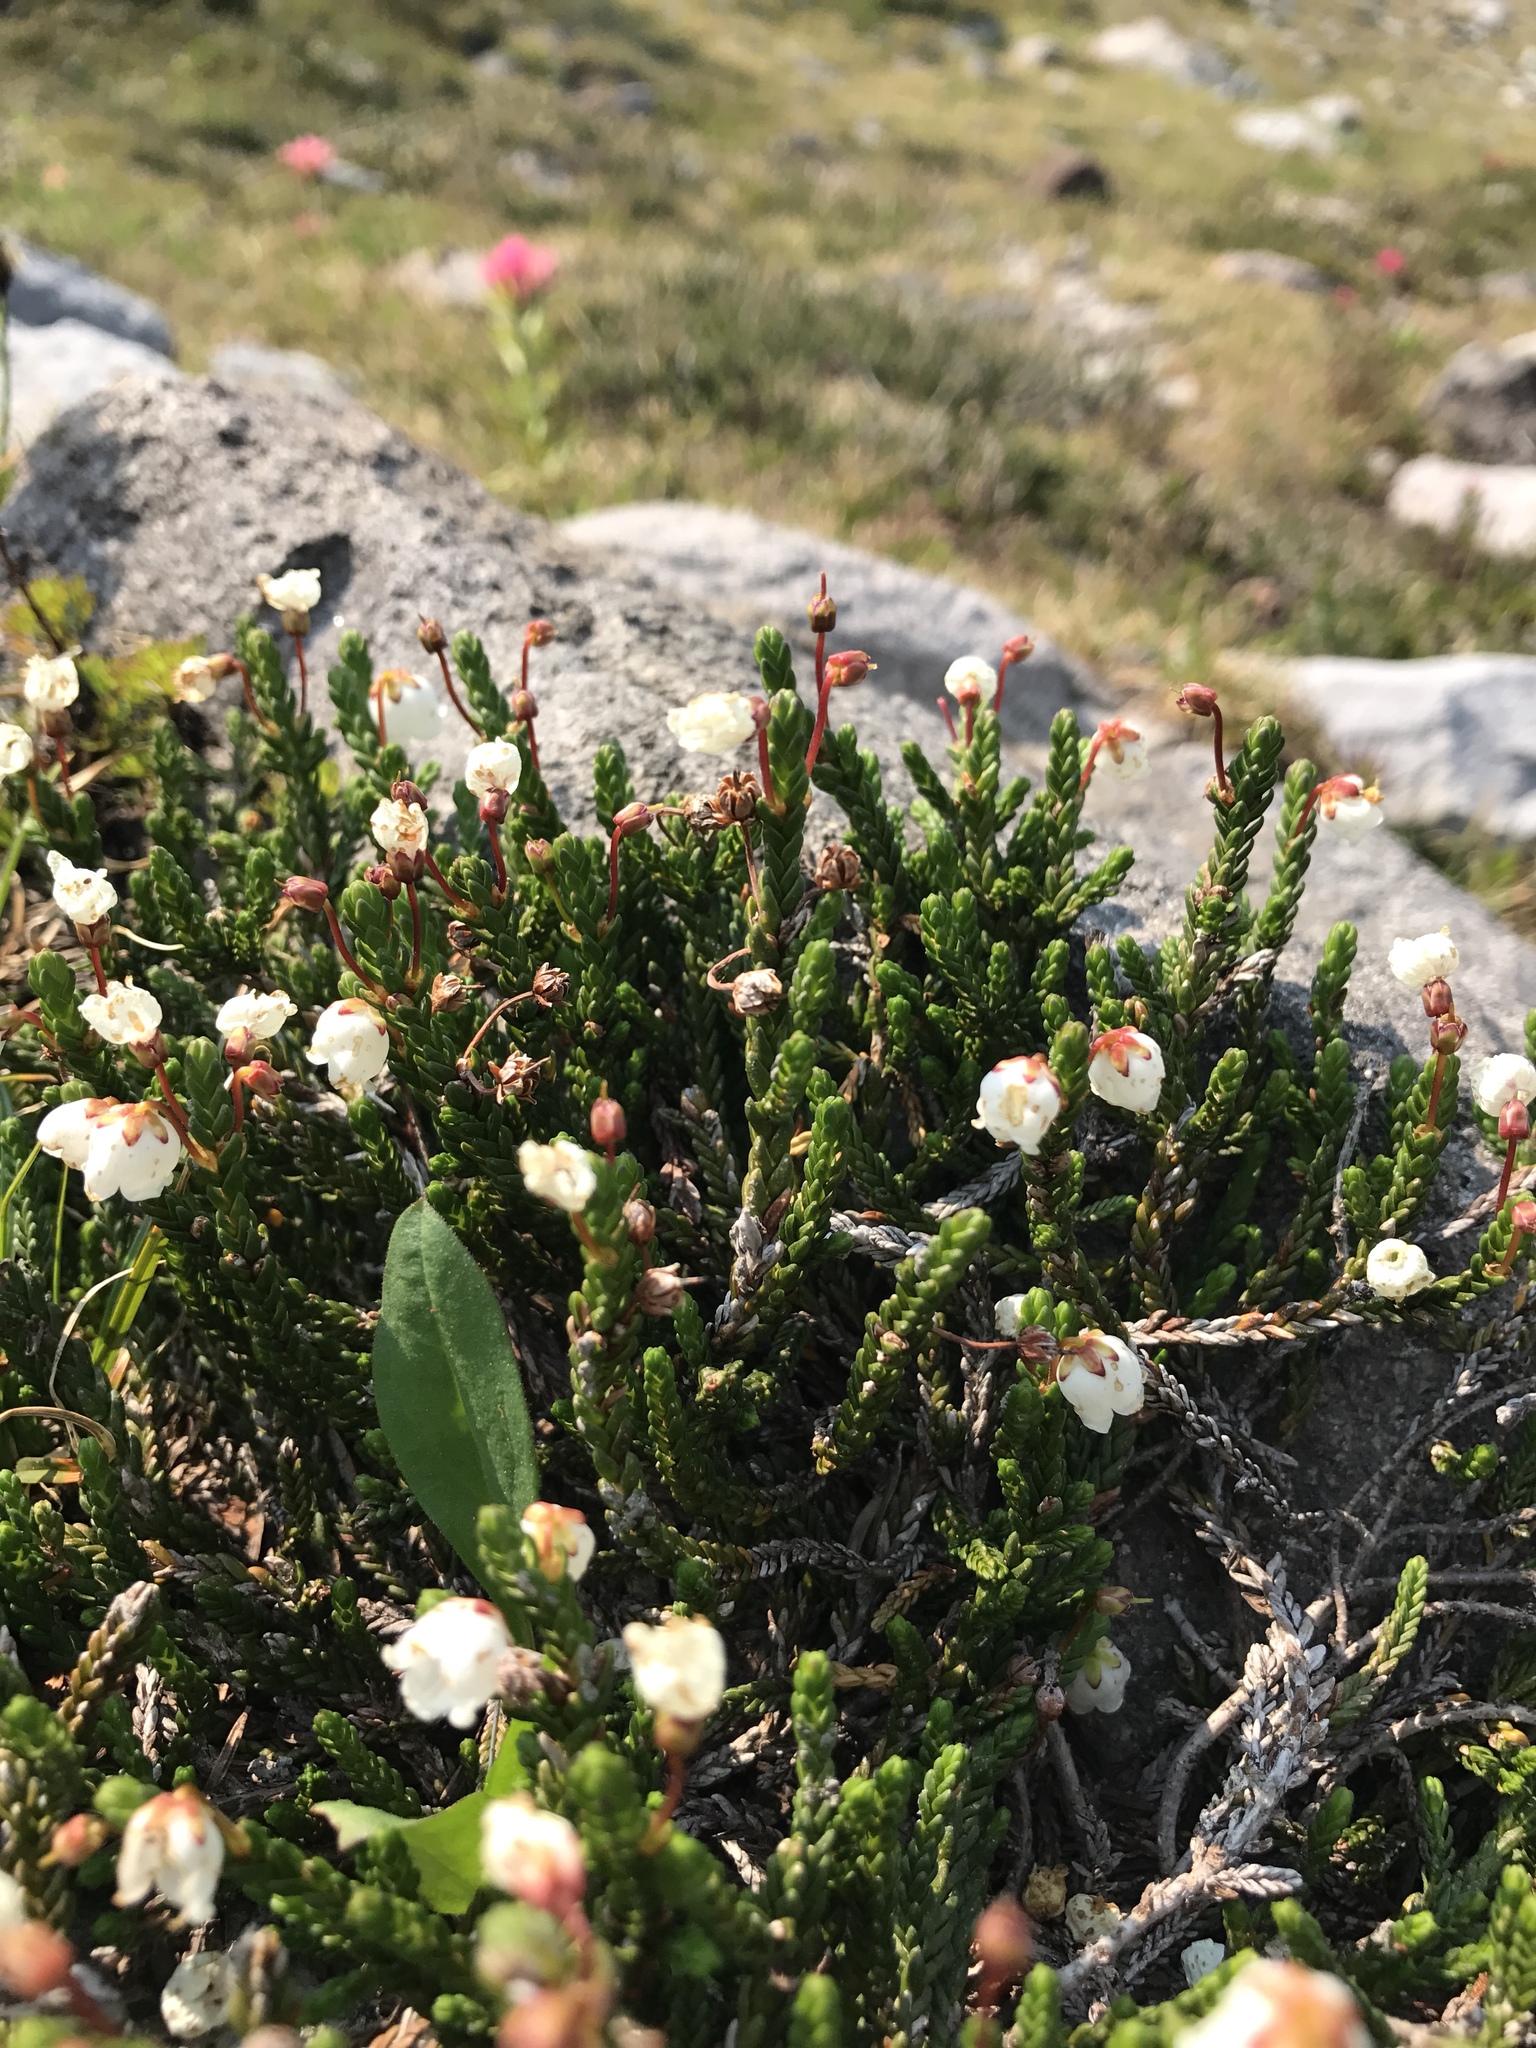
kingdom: Plantae
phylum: Tracheophyta
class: Magnoliopsida
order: Ericales
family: Ericaceae
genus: Cassiope
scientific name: Cassiope mertensiana
